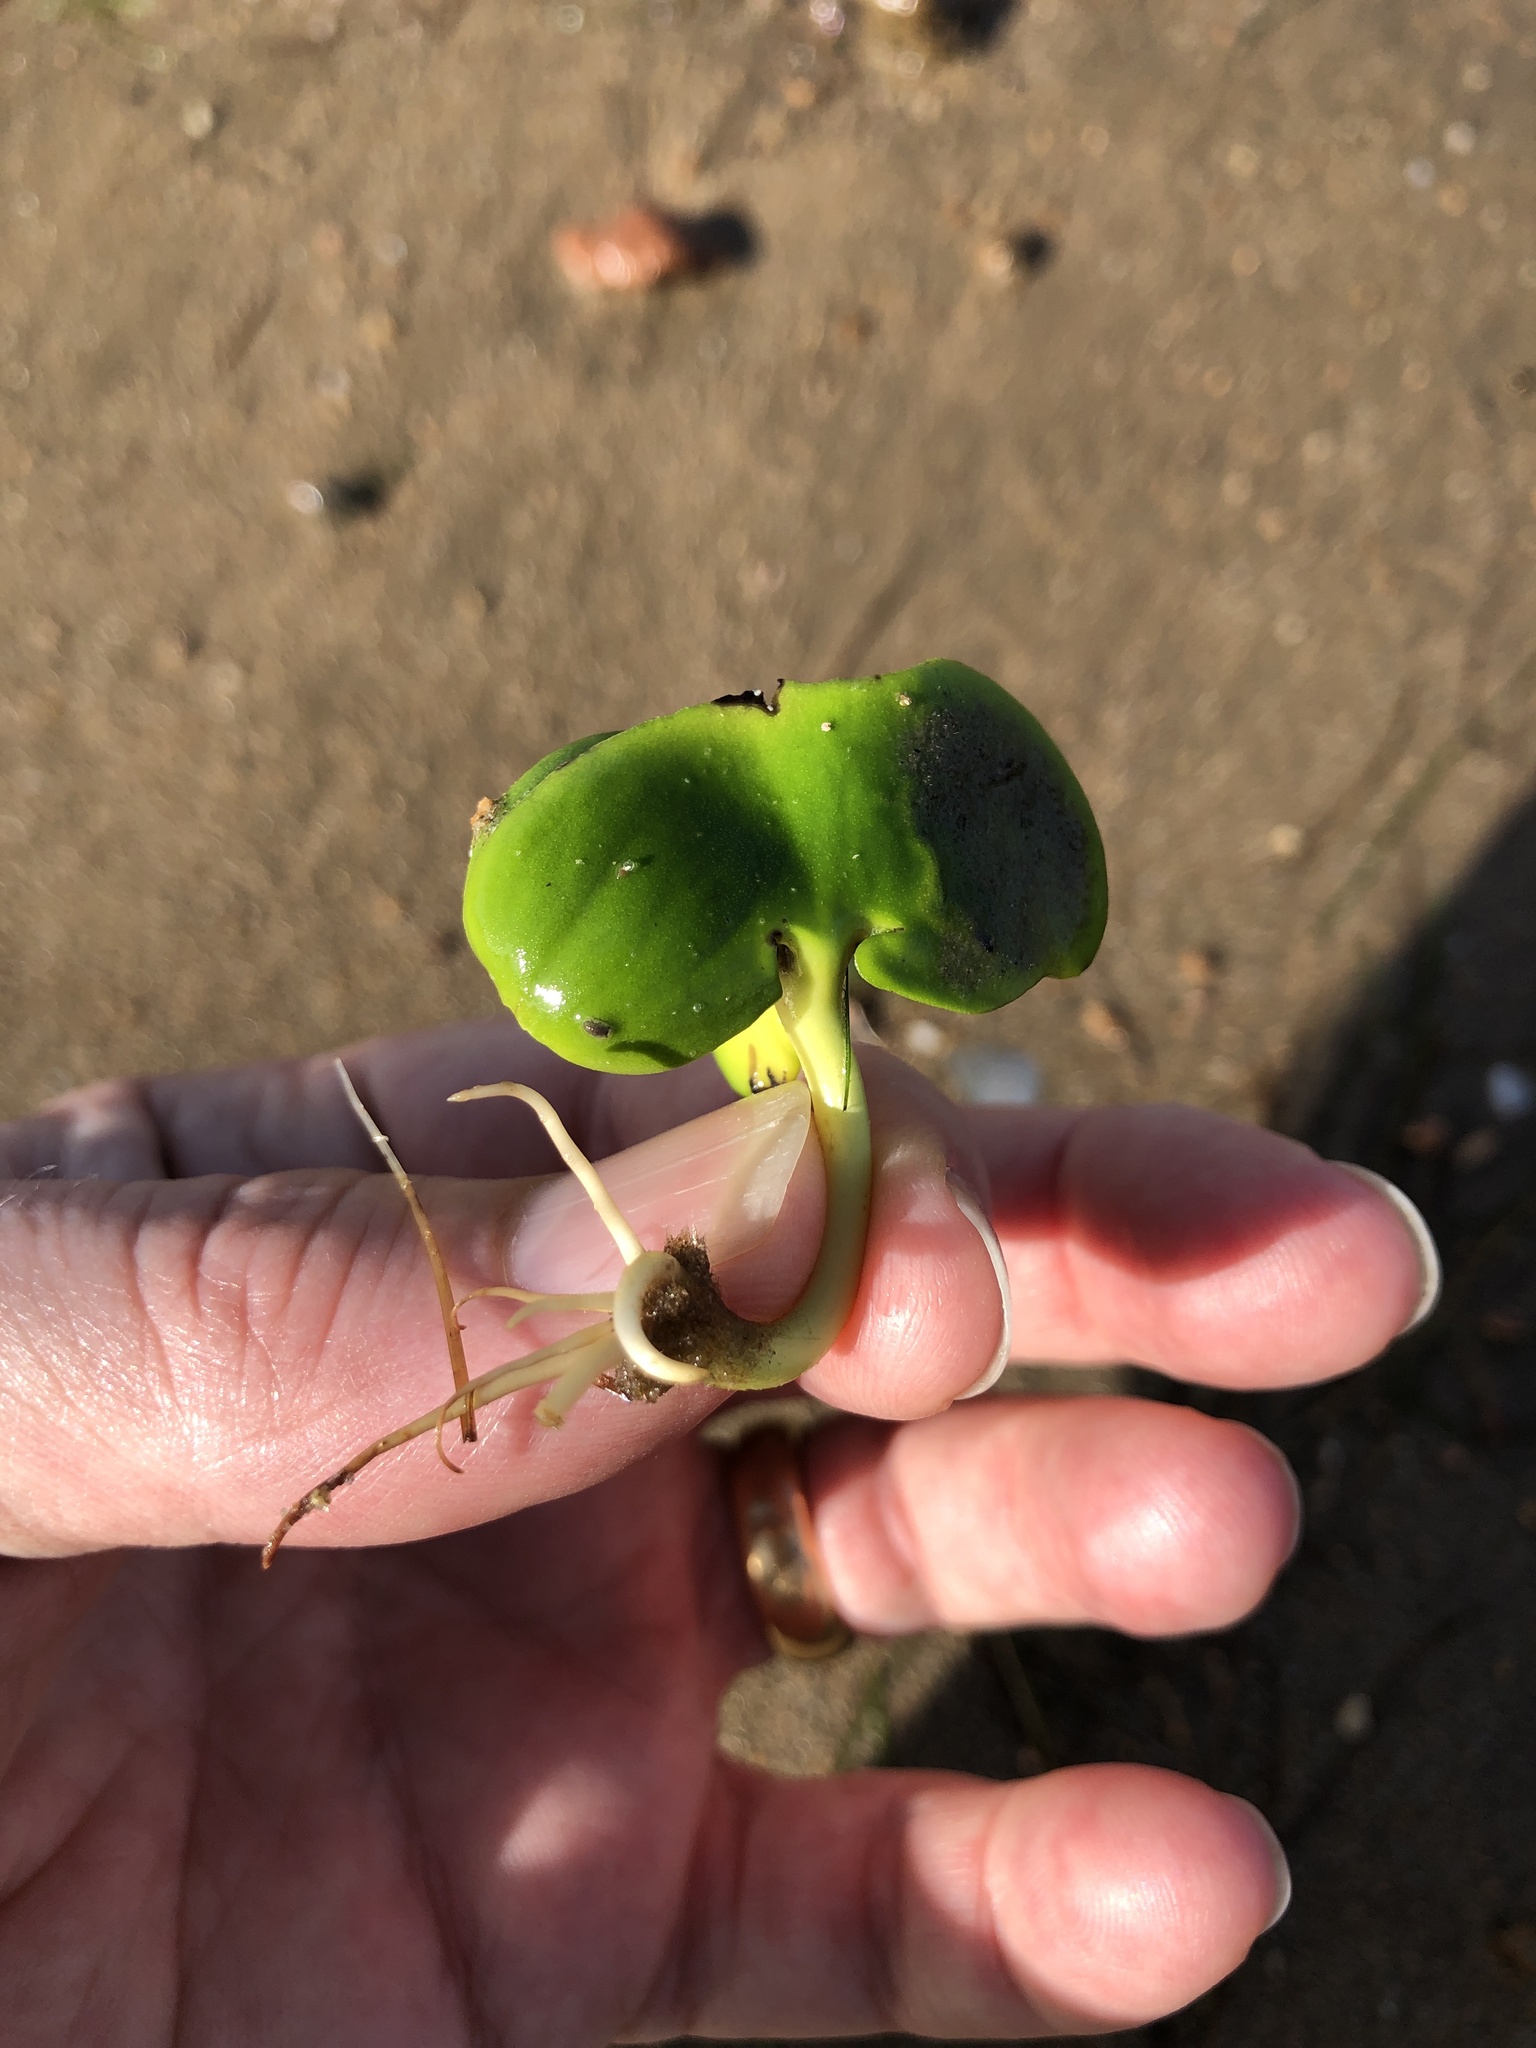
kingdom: Plantae
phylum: Tracheophyta
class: Magnoliopsida
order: Lamiales
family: Acanthaceae
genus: Avicennia
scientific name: Avicennia marina
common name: Gray mangrove
